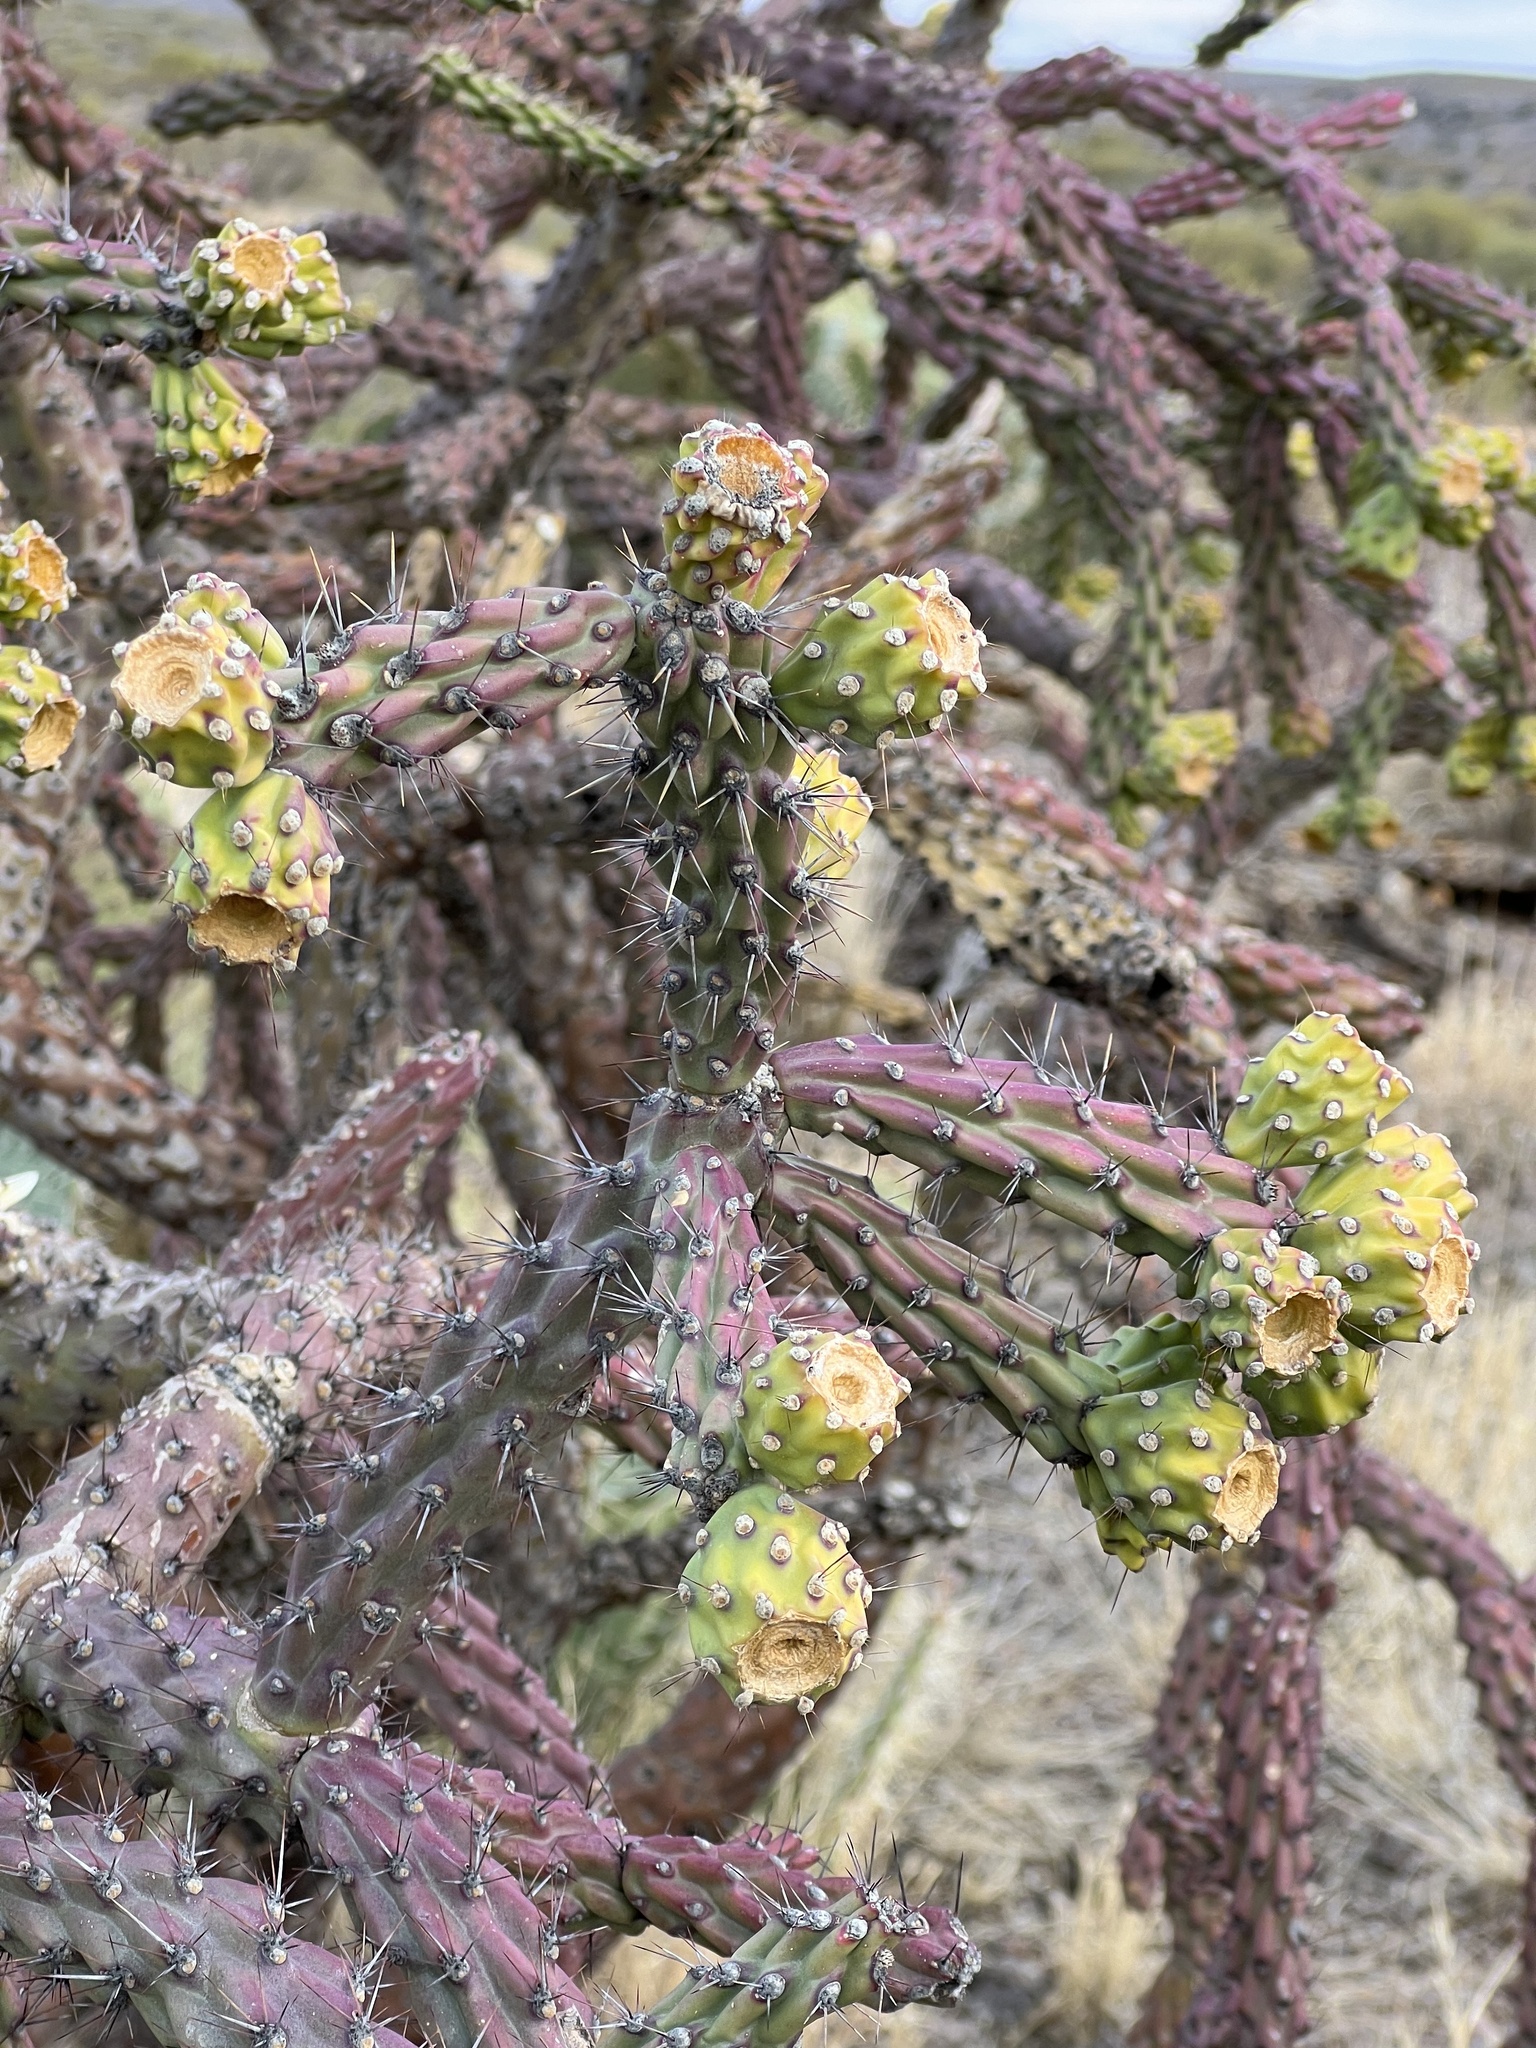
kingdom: Plantae
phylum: Tracheophyta
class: Magnoliopsida
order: Caryophyllales
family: Cactaceae
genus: Cylindropuntia
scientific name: Cylindropuntia thurberi
